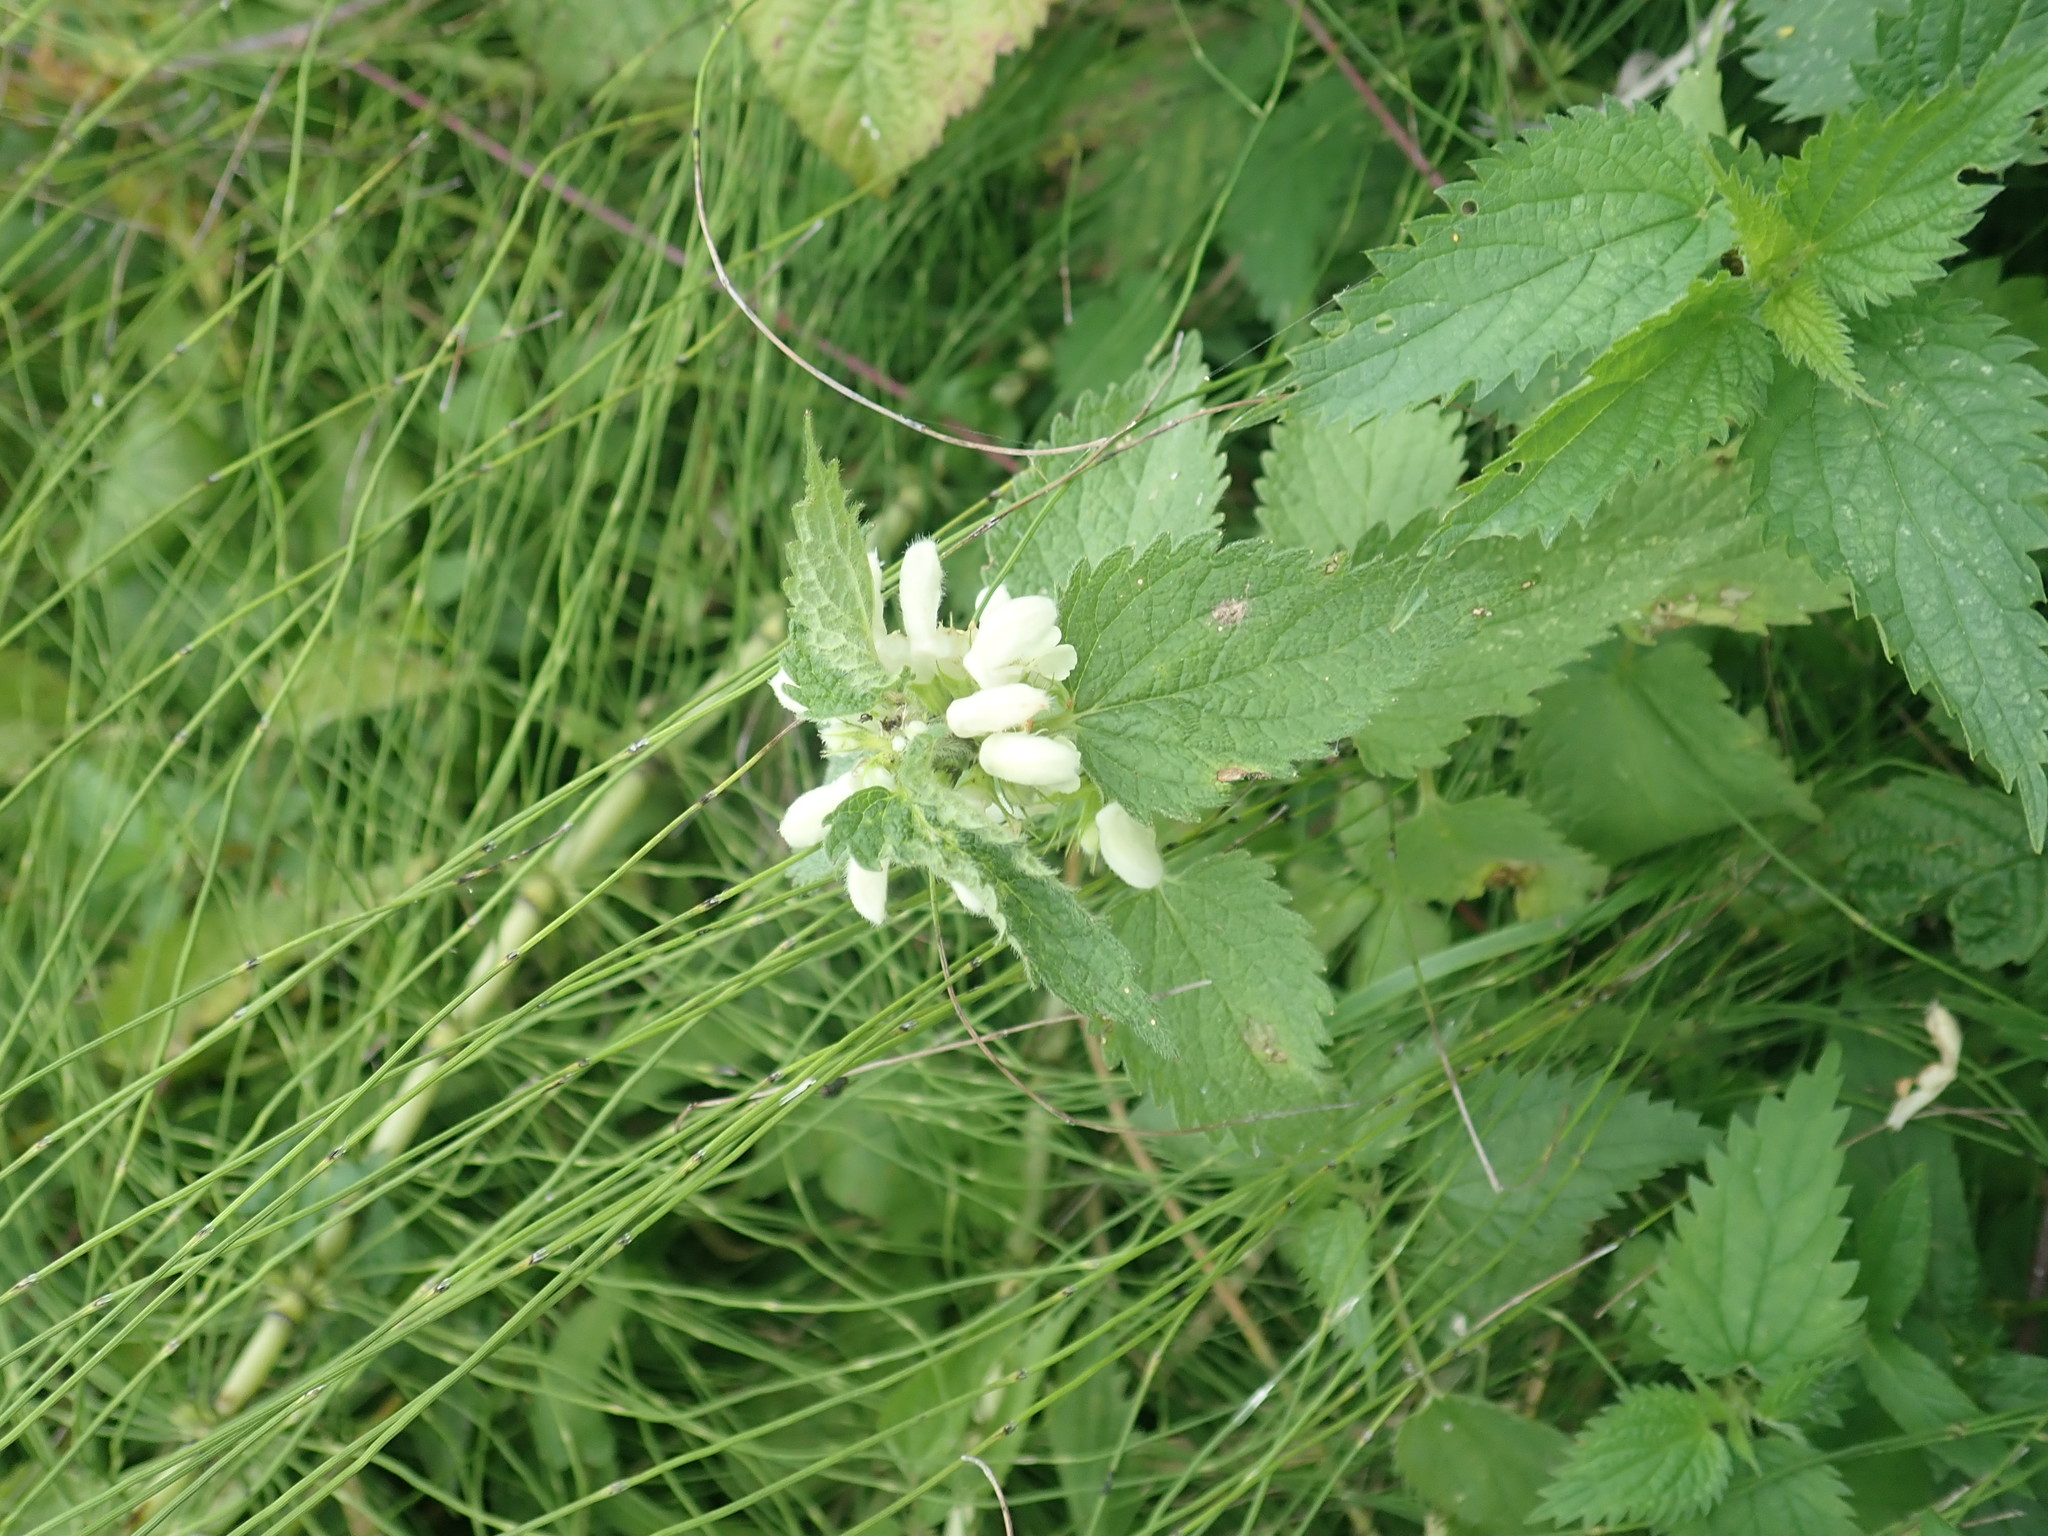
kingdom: Plantae
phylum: Tracheophyta
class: Magnoliopsida
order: Lamiales
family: Lamiaceae
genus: Lamium
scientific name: Lamium album
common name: White dead-nettle
